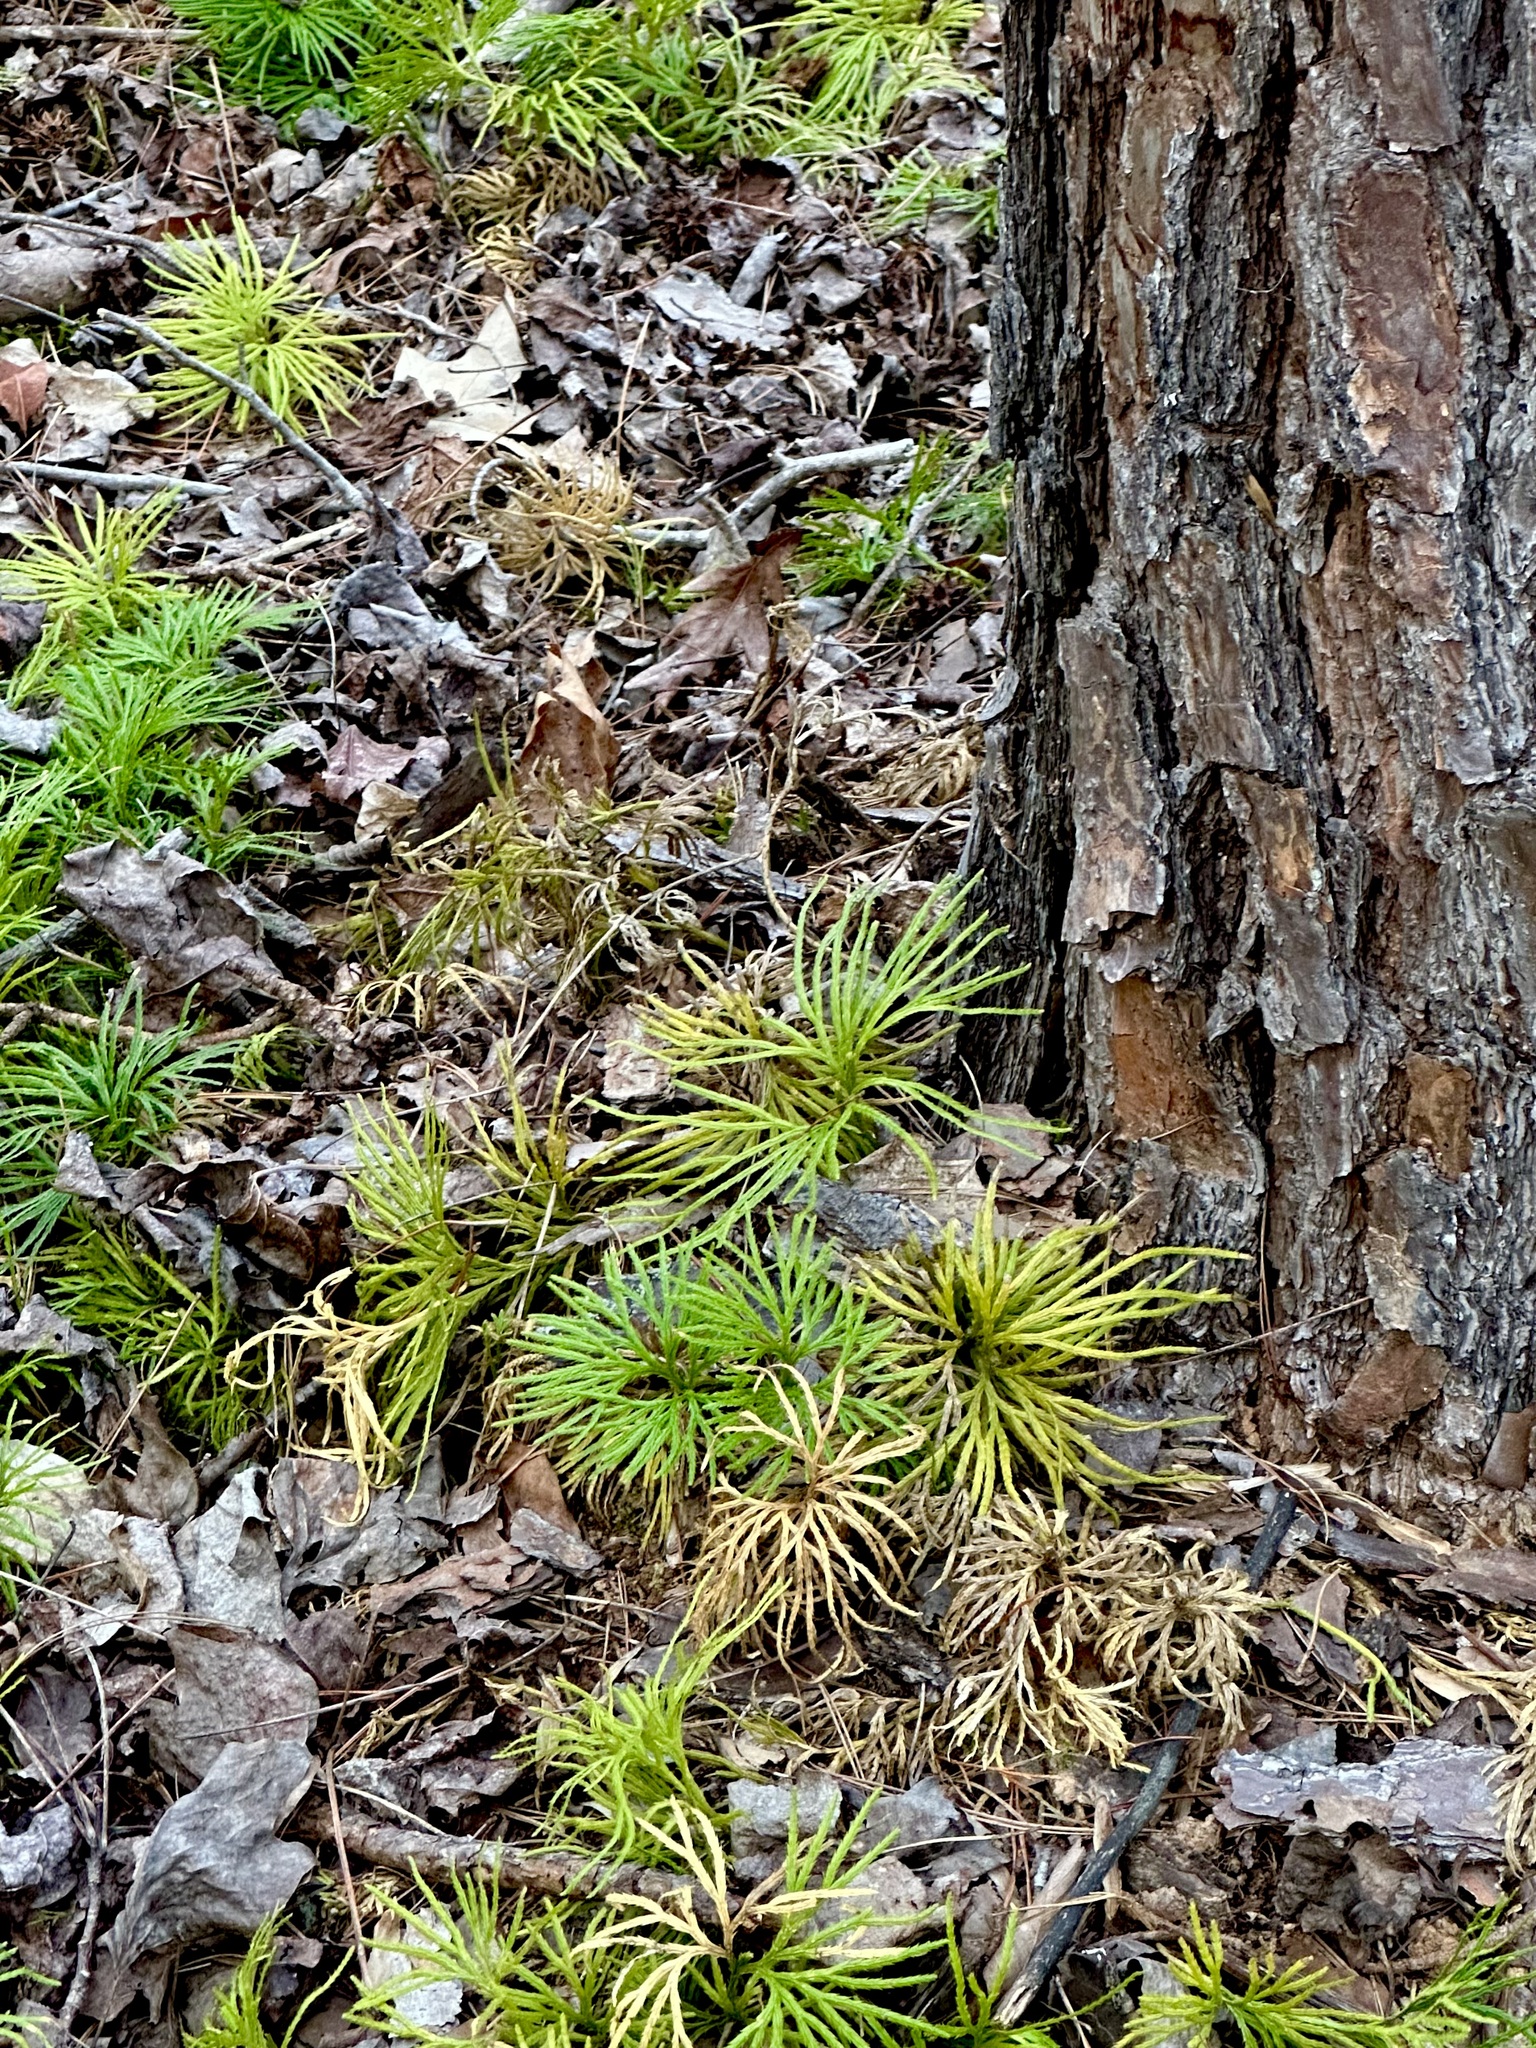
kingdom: Plantae
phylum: Tracheophyta
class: Lycopodiopsida
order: Lycopodiales
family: Lycopodiaceae
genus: Diphasiastrum
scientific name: Diphasiastrum digitatum
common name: Southern running-pine
